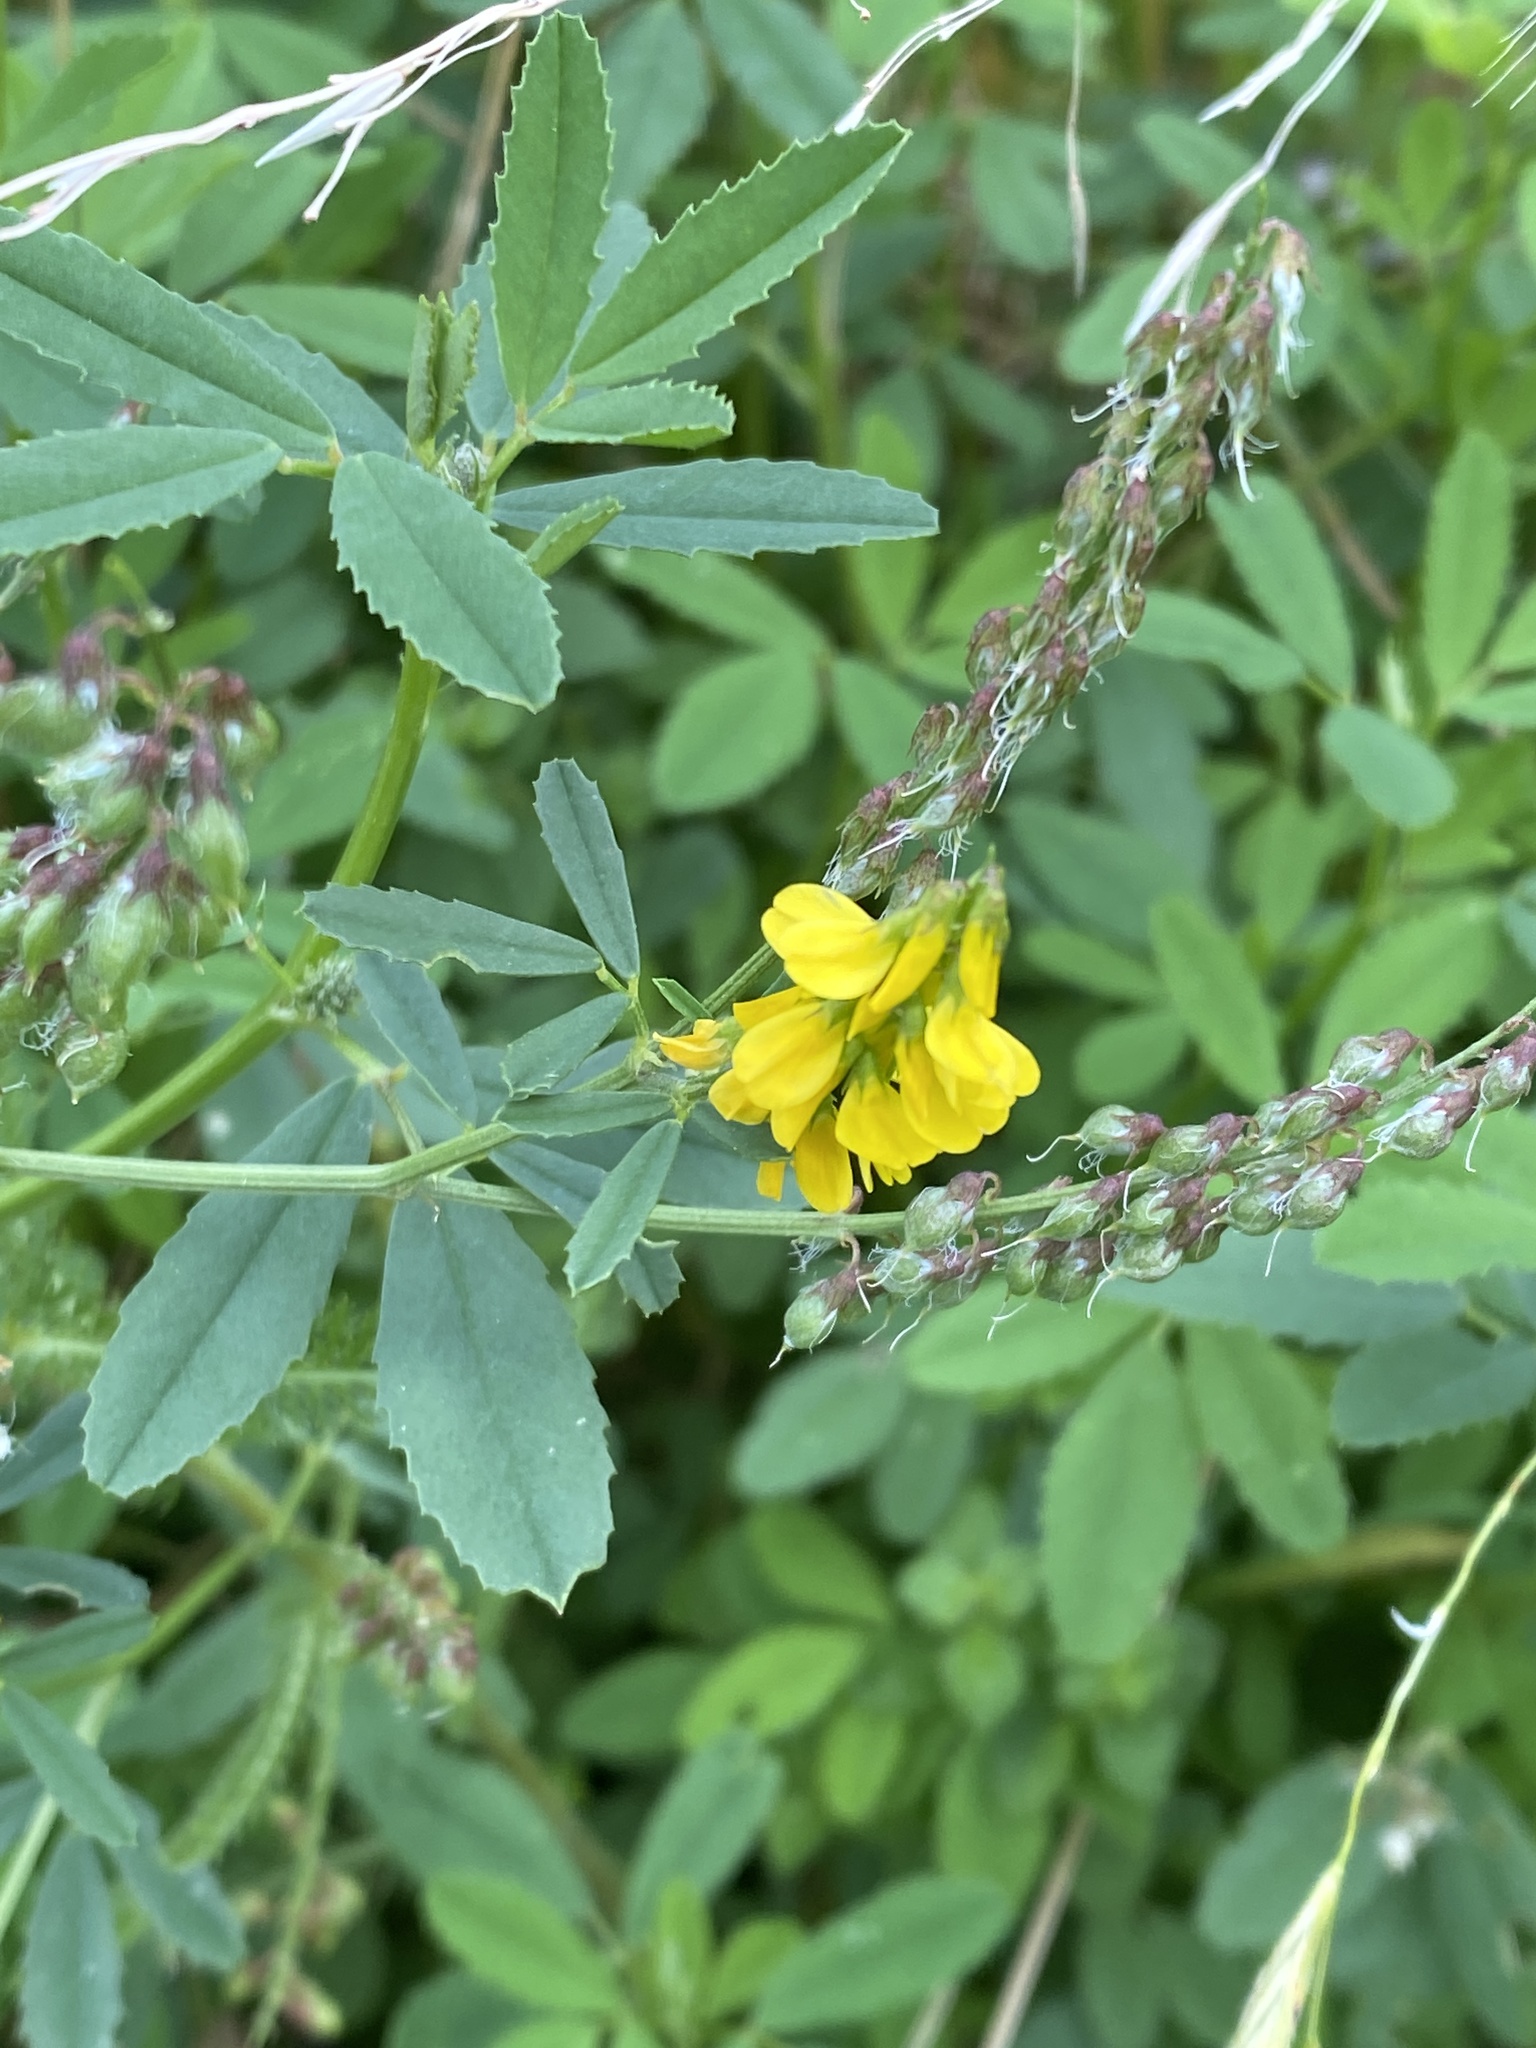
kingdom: Plantae
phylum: Tracheophyta
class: Magnoliopsida
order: Fabales
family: Fabaceae
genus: Melilotus
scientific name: Melilotus officinalis
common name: Sweetclover
